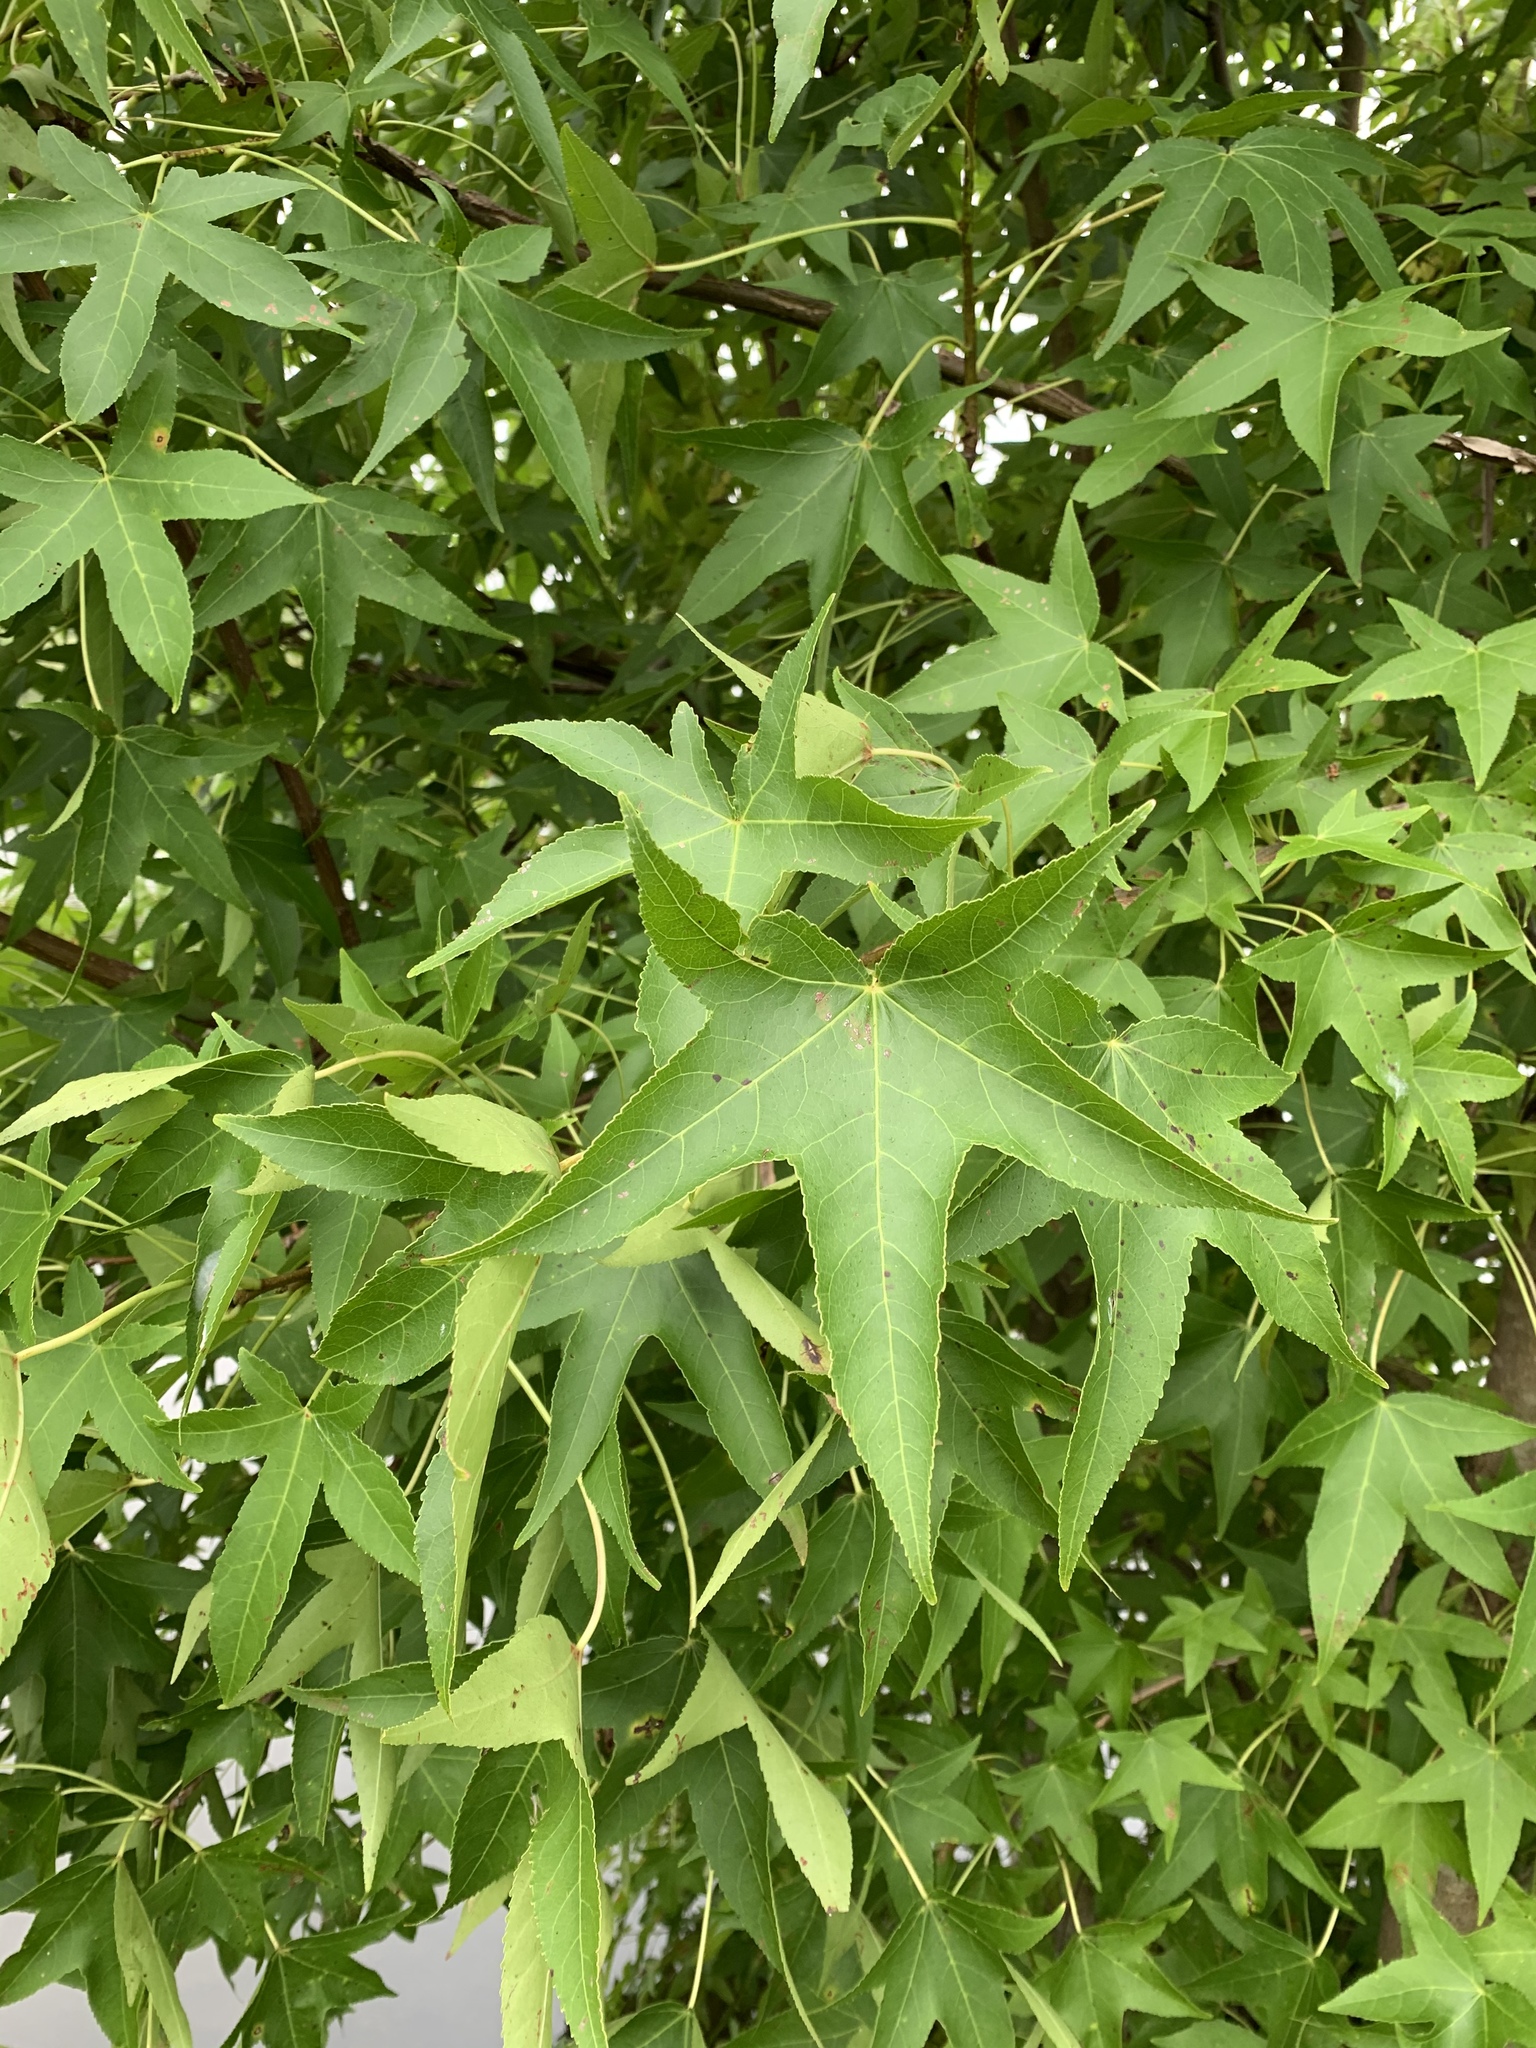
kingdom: Plantae
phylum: Tracheophyta
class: Magnoliopsida
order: Saxifragales
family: Altingiaceae
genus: Liquidambar
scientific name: Liquidambar styraciflua
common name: Sweet gum
